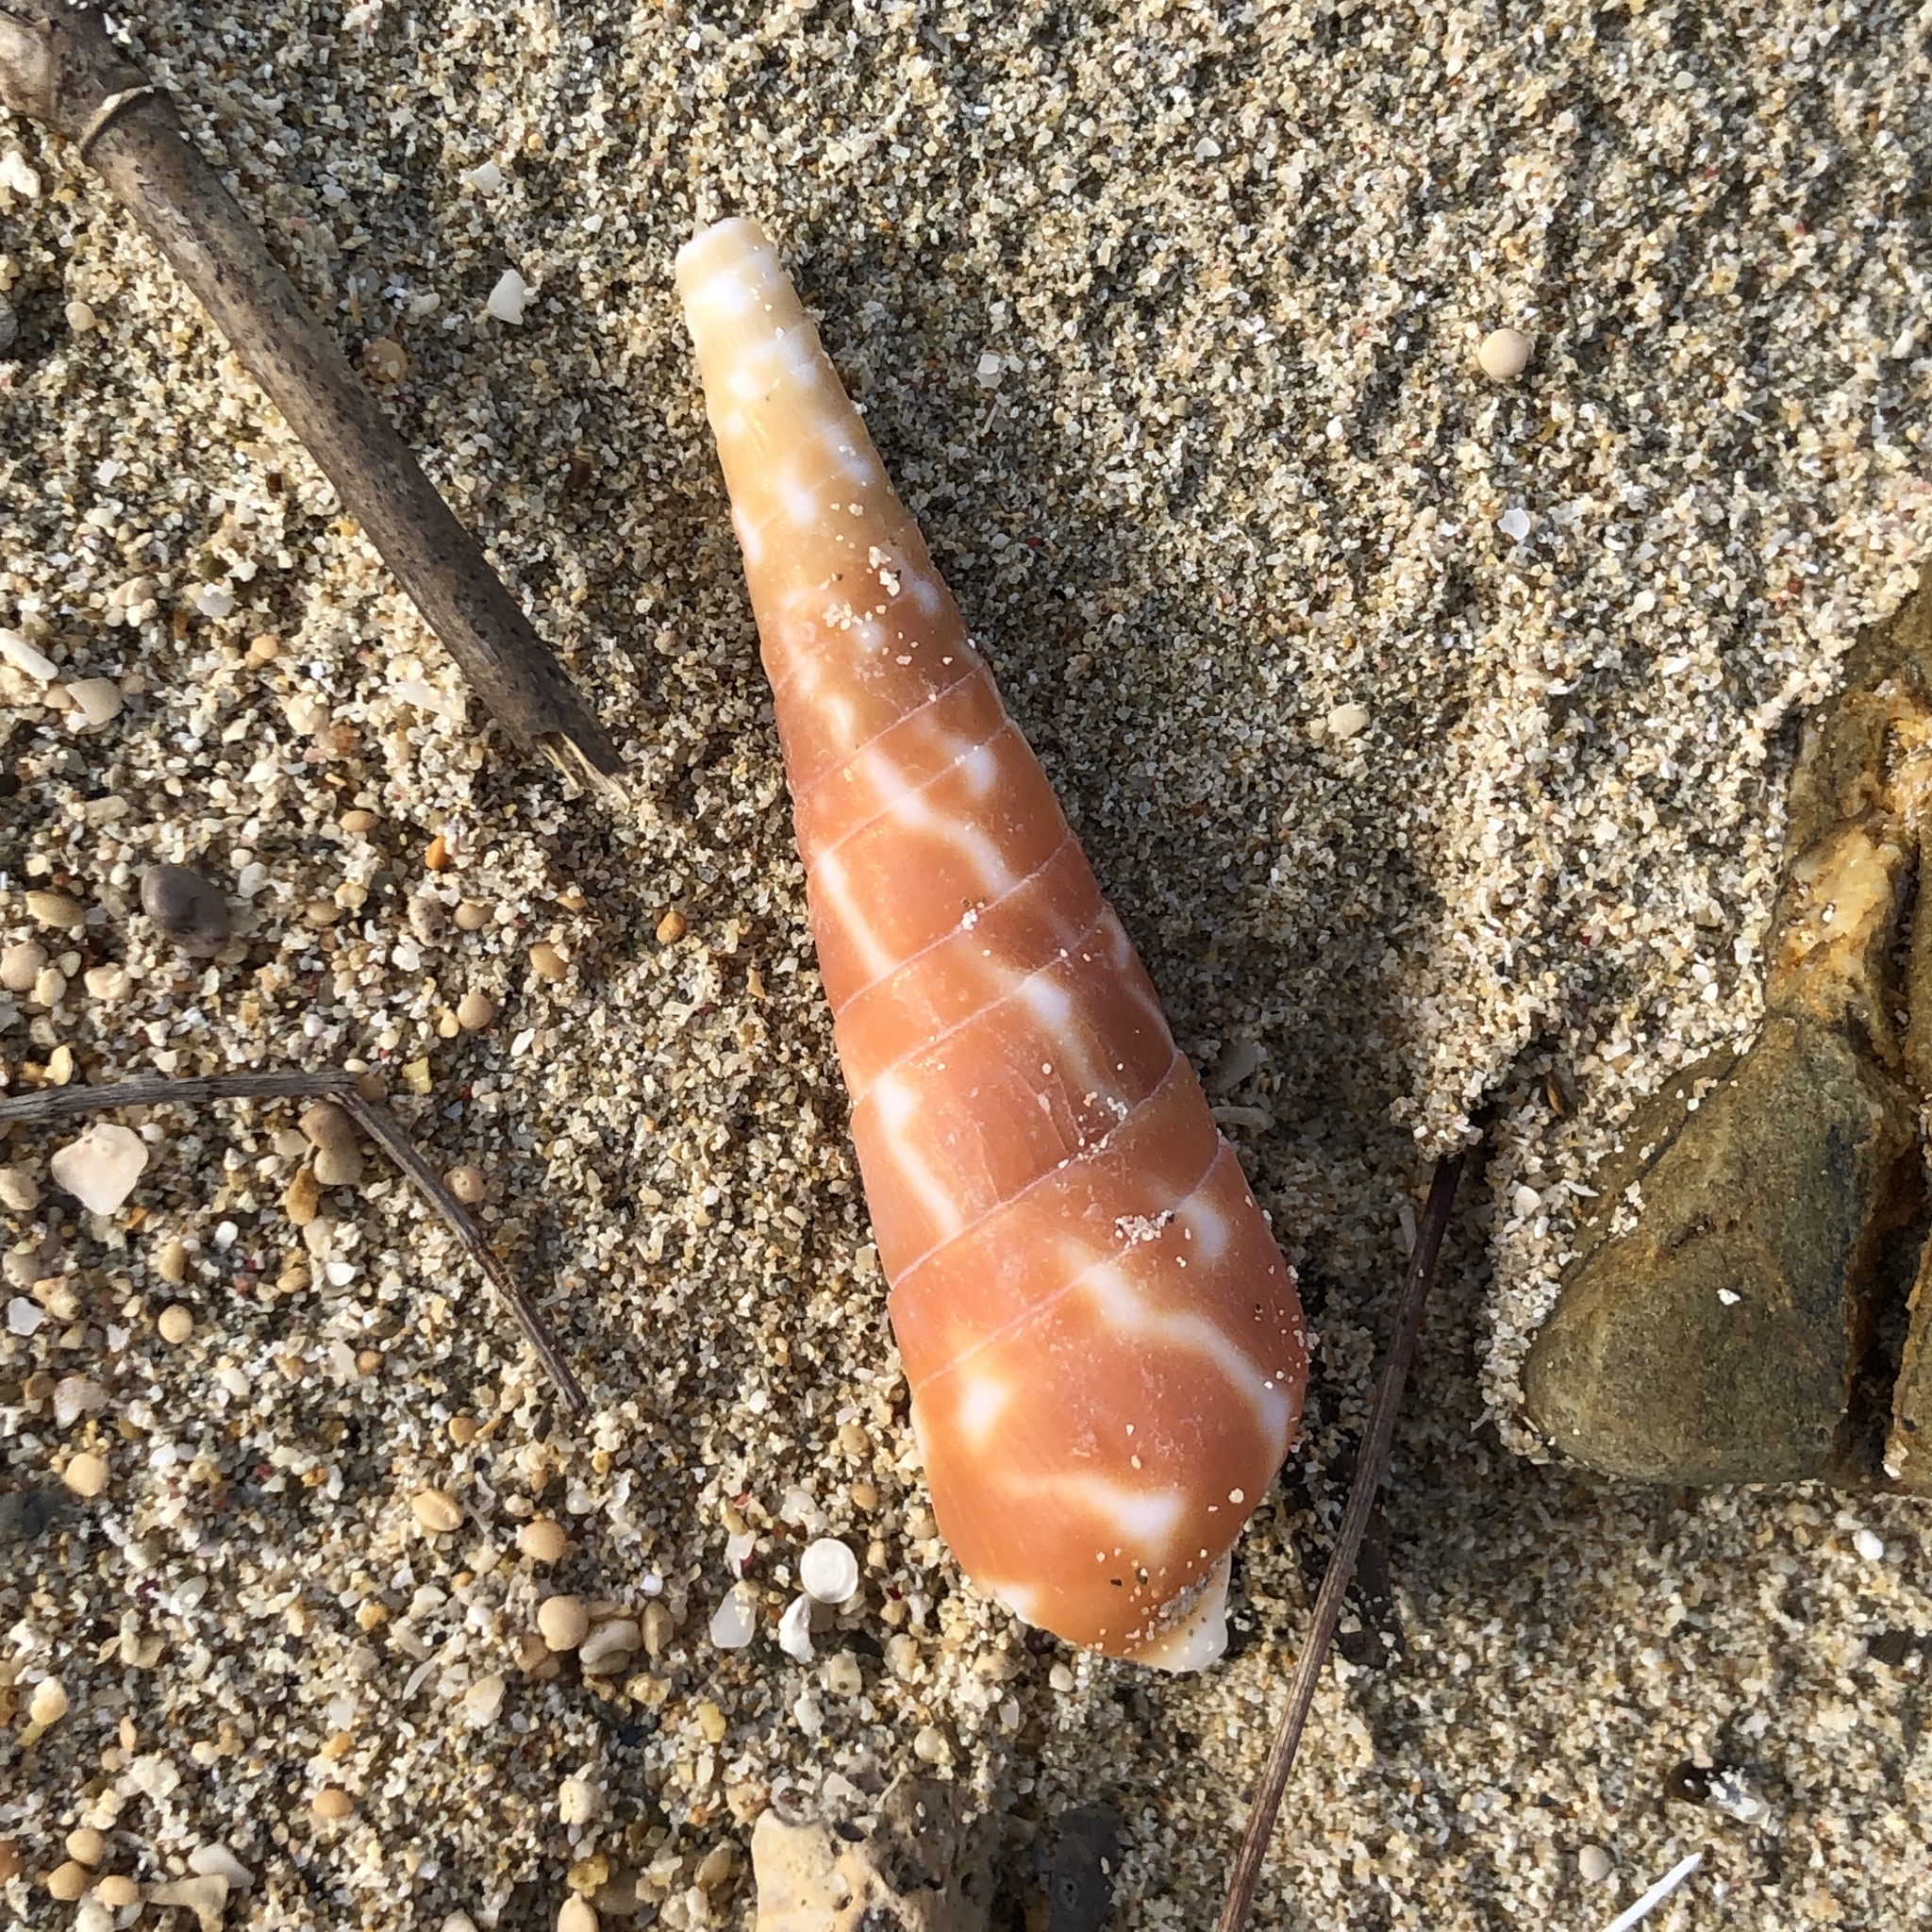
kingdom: Animalia
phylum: Mollusca
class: Gastropoda
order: Neogastropoda
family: Terebridae
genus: Oxymeris
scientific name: Oxymeris dimidiata
